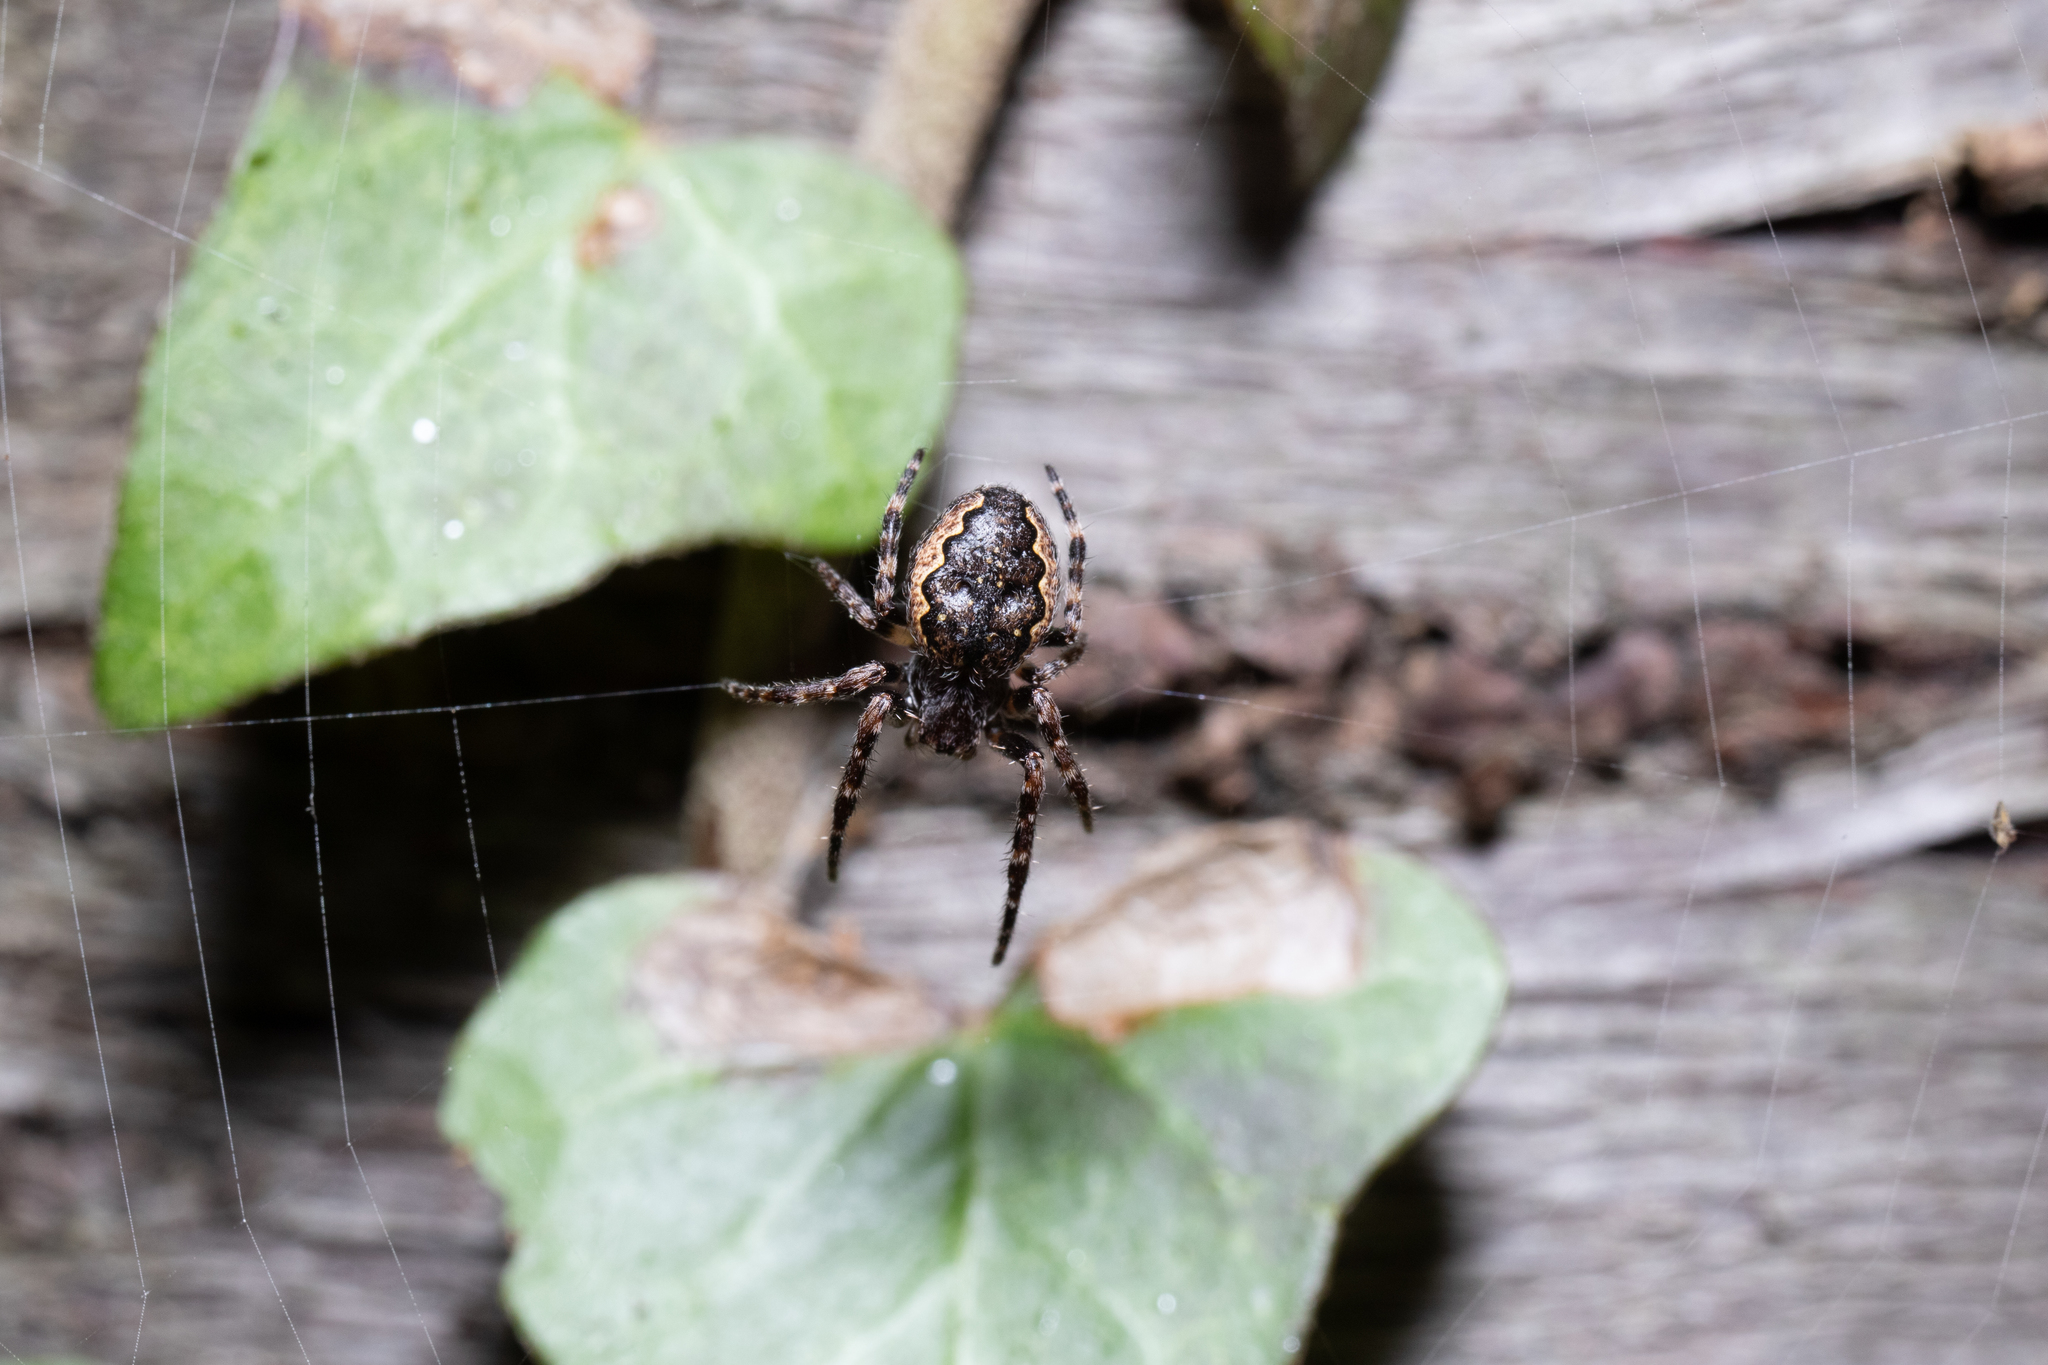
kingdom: Animalia
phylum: Arthropoda
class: Arachnida
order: Araneae
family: Araneidae
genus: Nuctenea
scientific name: Nuctenea umbratica
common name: Toad spider
